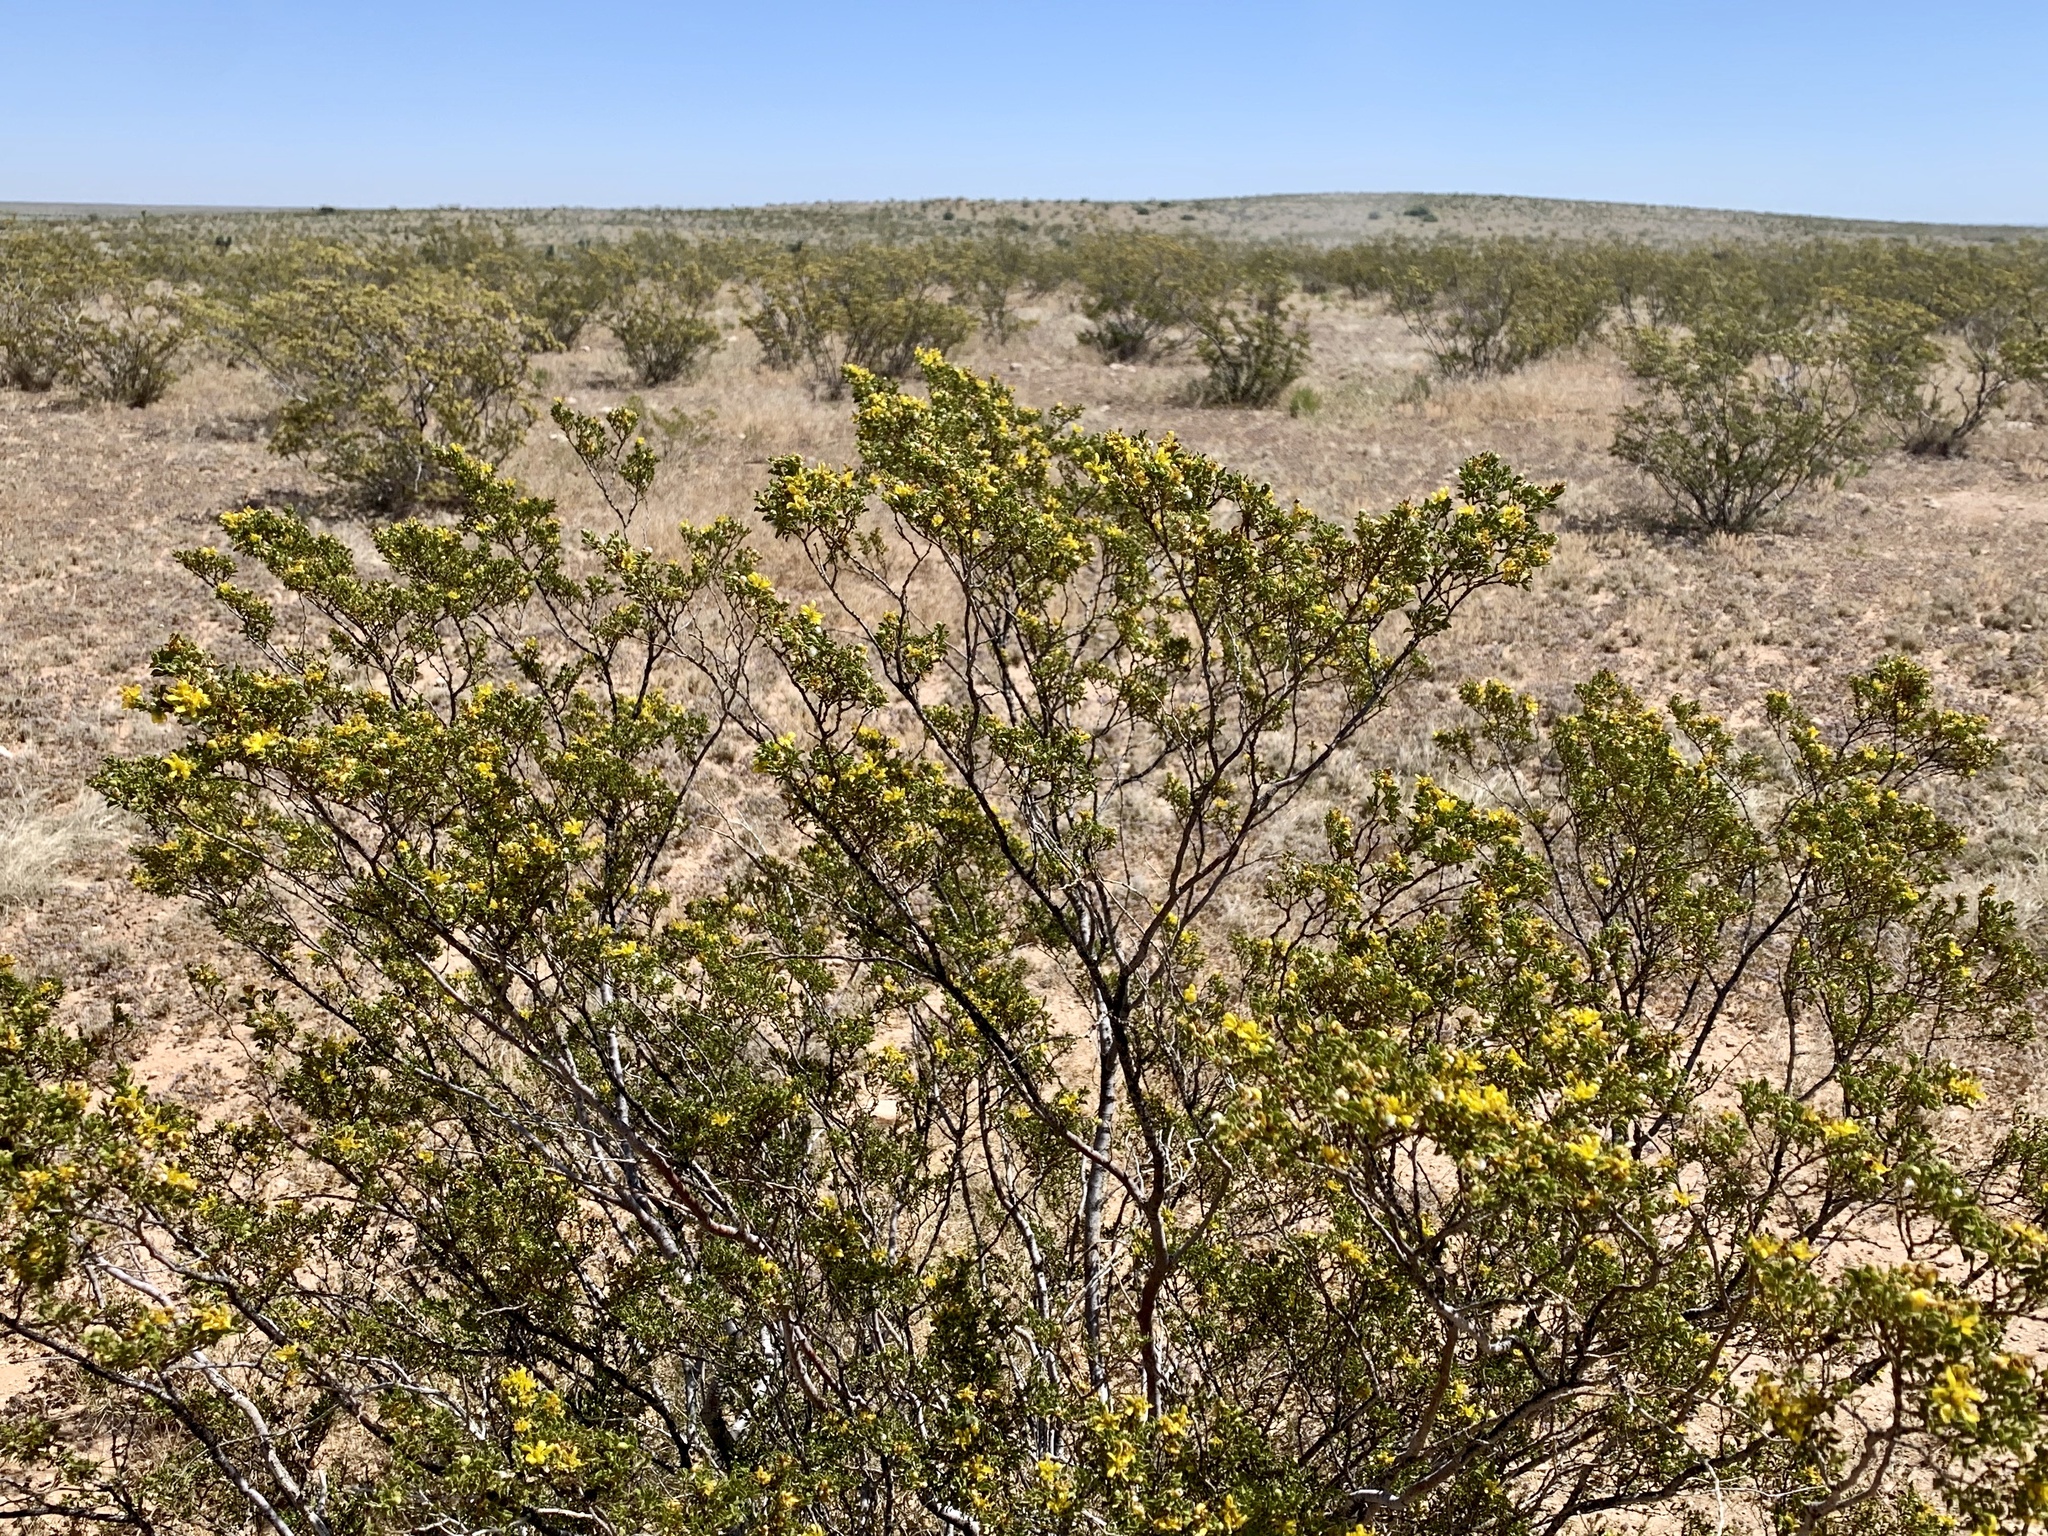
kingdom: Plantae
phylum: Tracheophyta
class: Magnoliopsida
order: Zygophyllales
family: Zygophyllaceae
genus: Larrea
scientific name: Larrea tridentata
